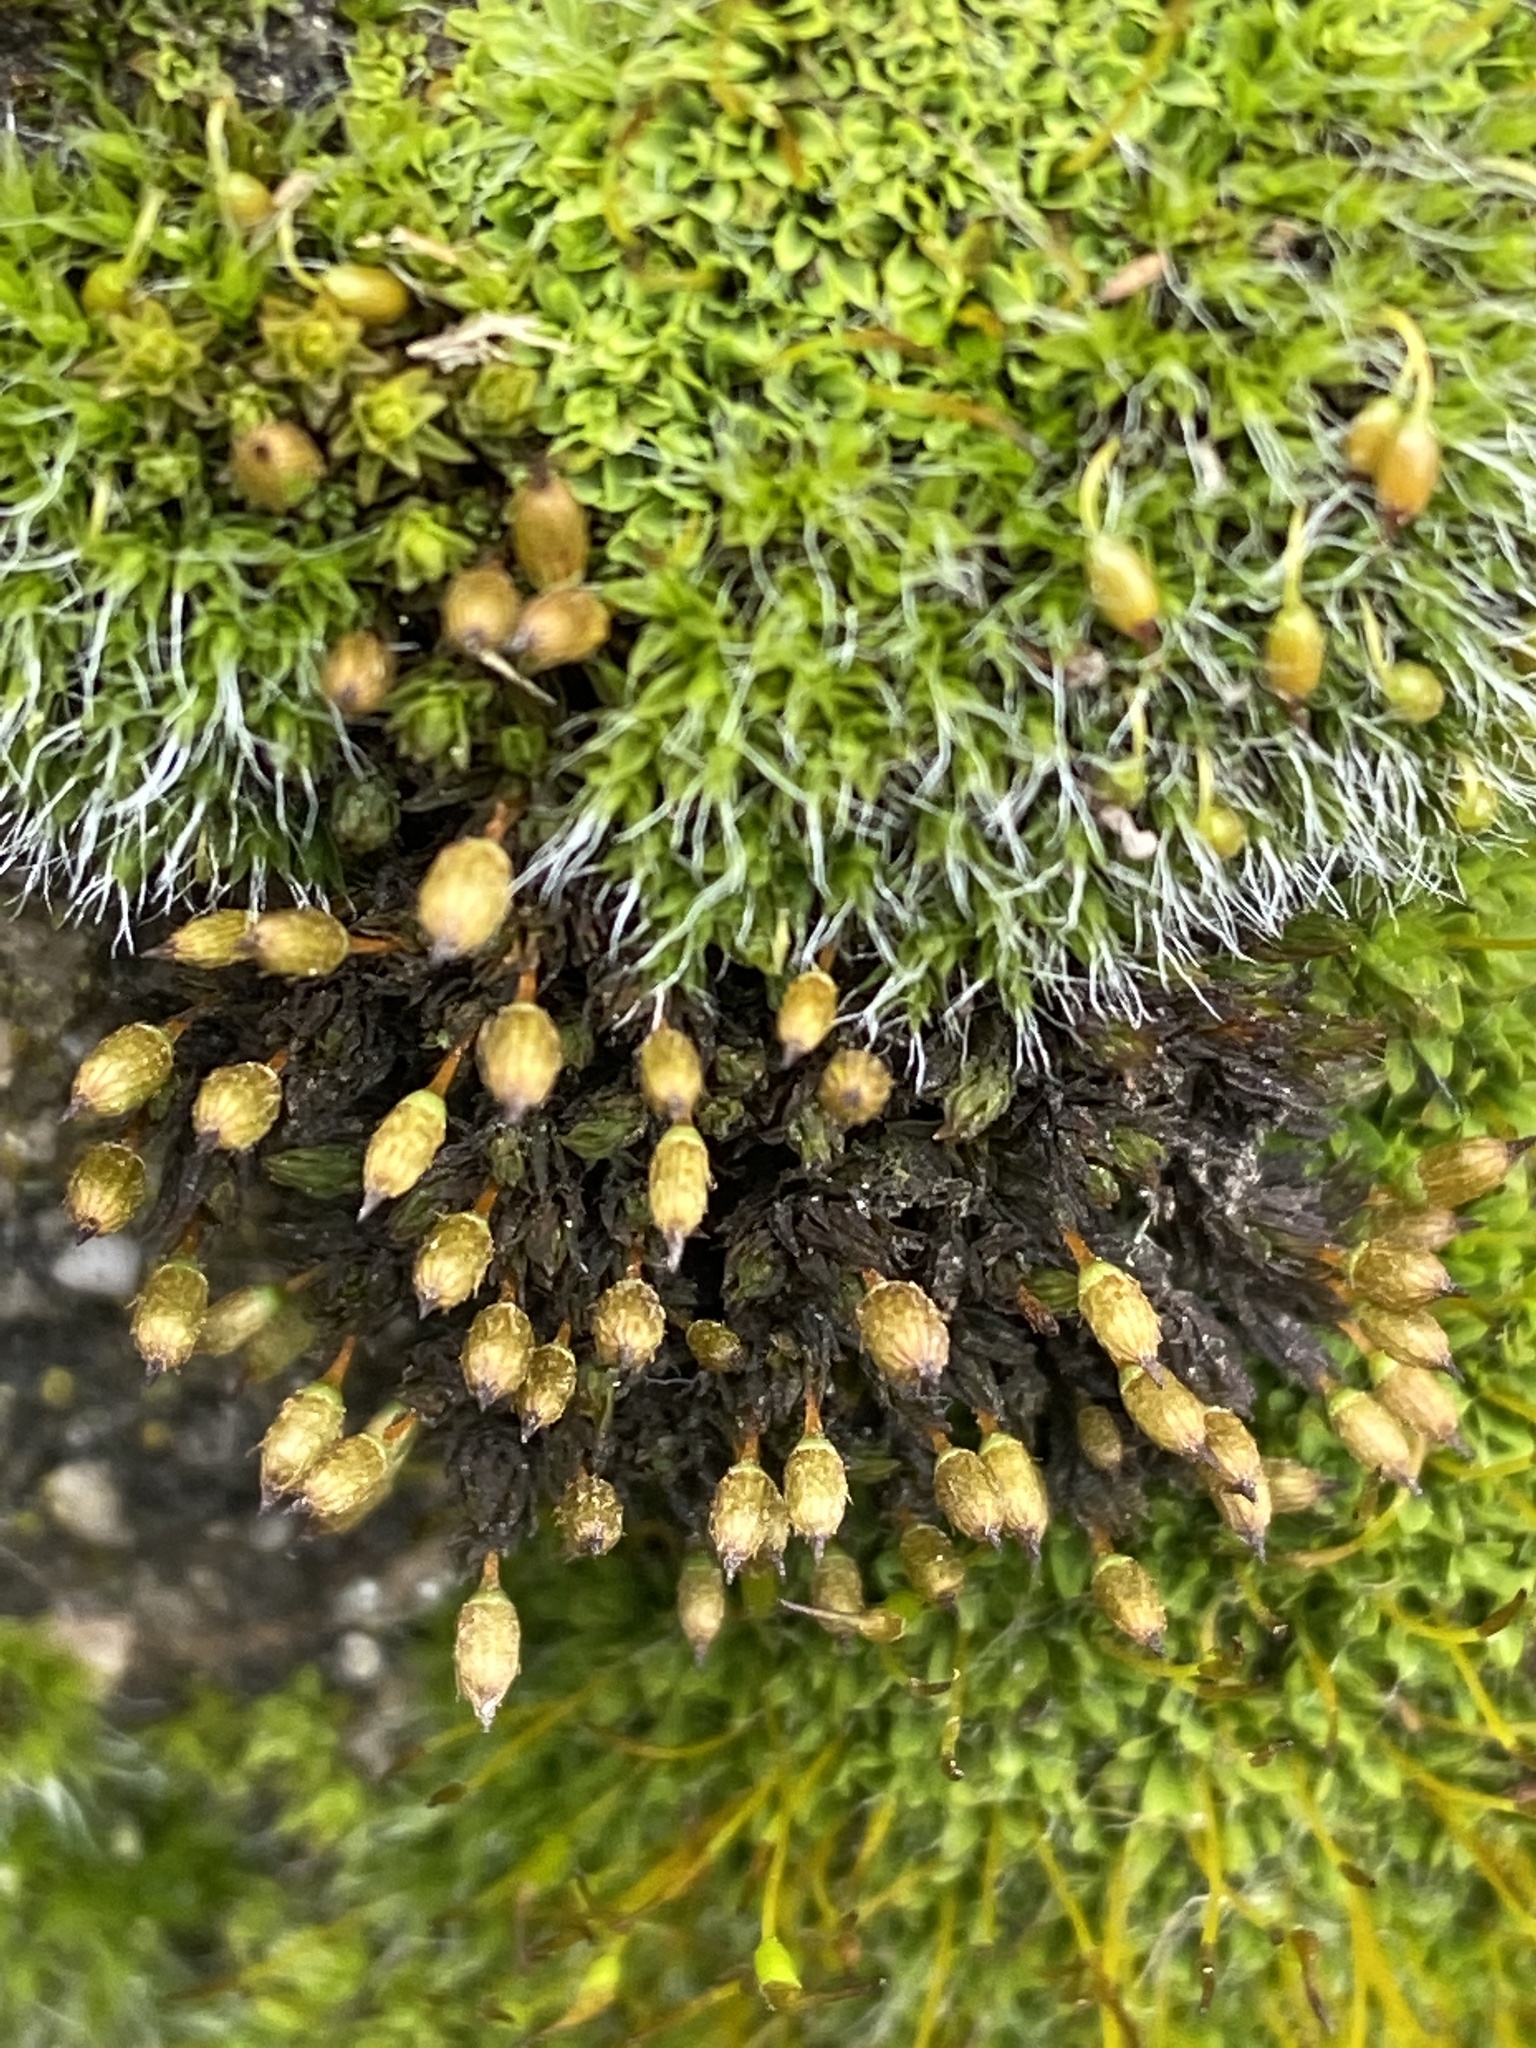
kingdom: Plantae
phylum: Bryophyta
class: Bryopsida
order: Orthotrichales
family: Orthotrichaceae
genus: Orthotrichum
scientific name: Orthotrichum cupulatum
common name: Hooded bristle-moss
